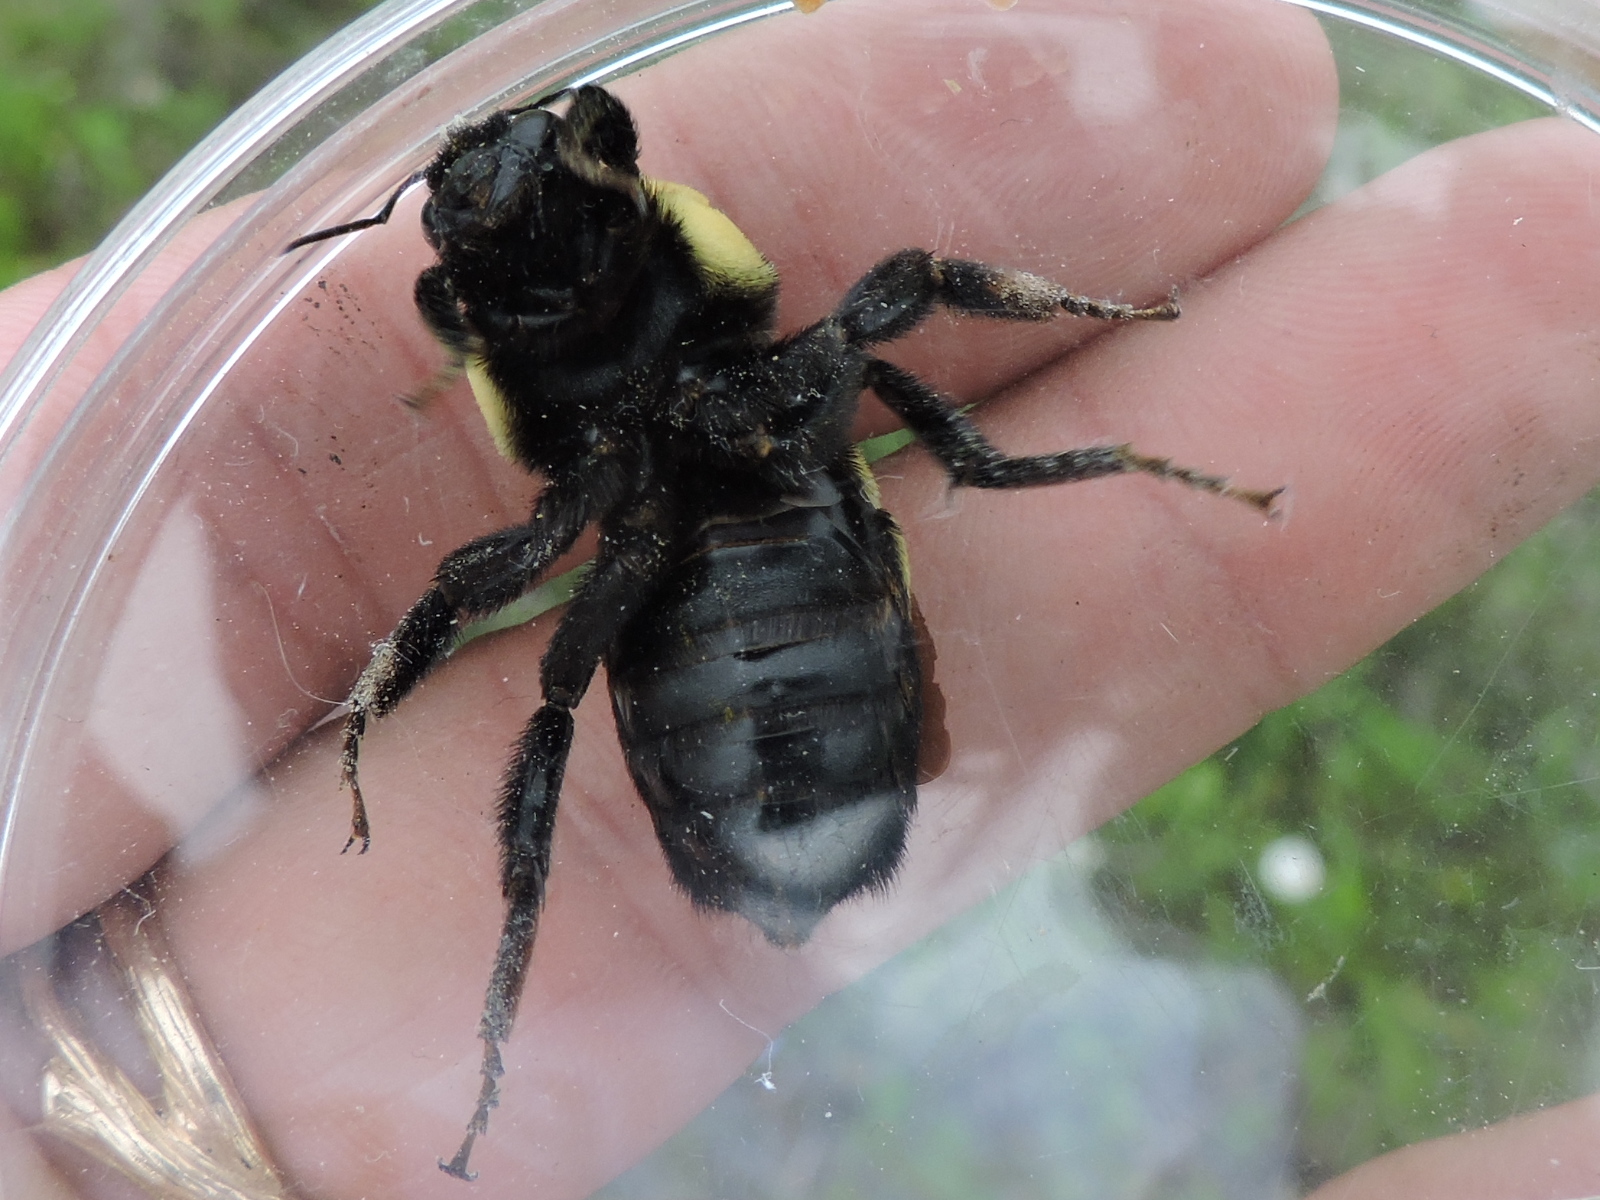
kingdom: Animalia
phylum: Arthropoda
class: Insecta
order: Hymenoptera
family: Apidae
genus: Bombus
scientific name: Bombus fraternus
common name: Southern plains bumble bee
